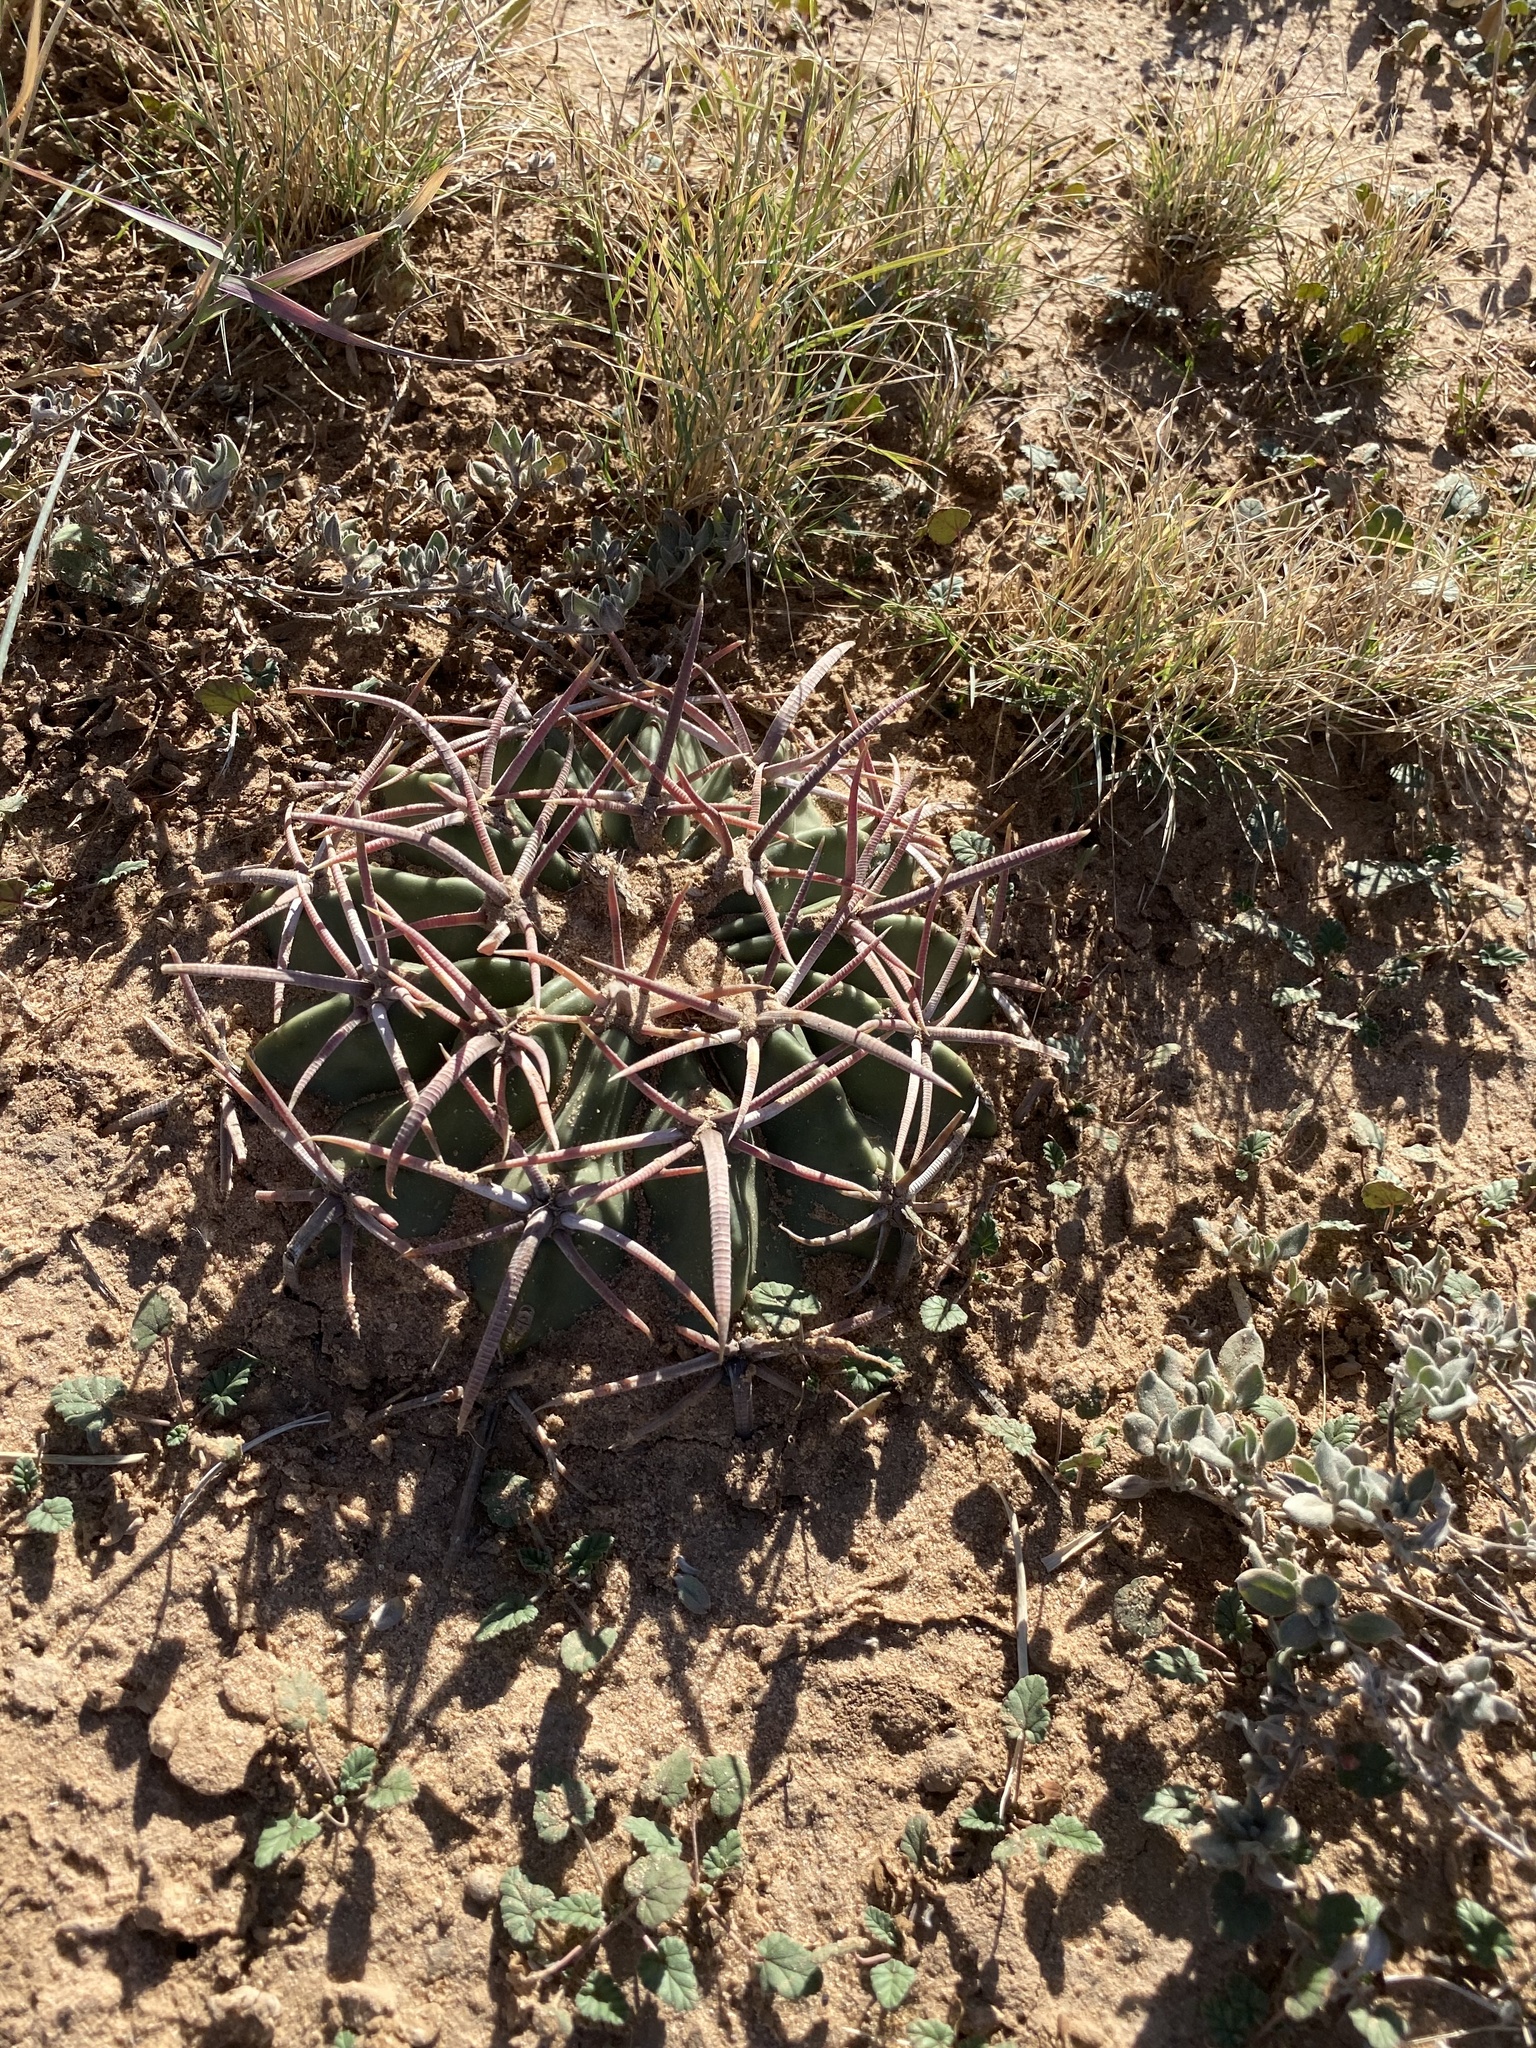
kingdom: Plantae
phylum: Tracheophyta
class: Magnoliopsida
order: Caryophyllales
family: Cactaceae
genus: Echinocactus
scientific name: Echinocactus texensis
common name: Devil's pincushion
